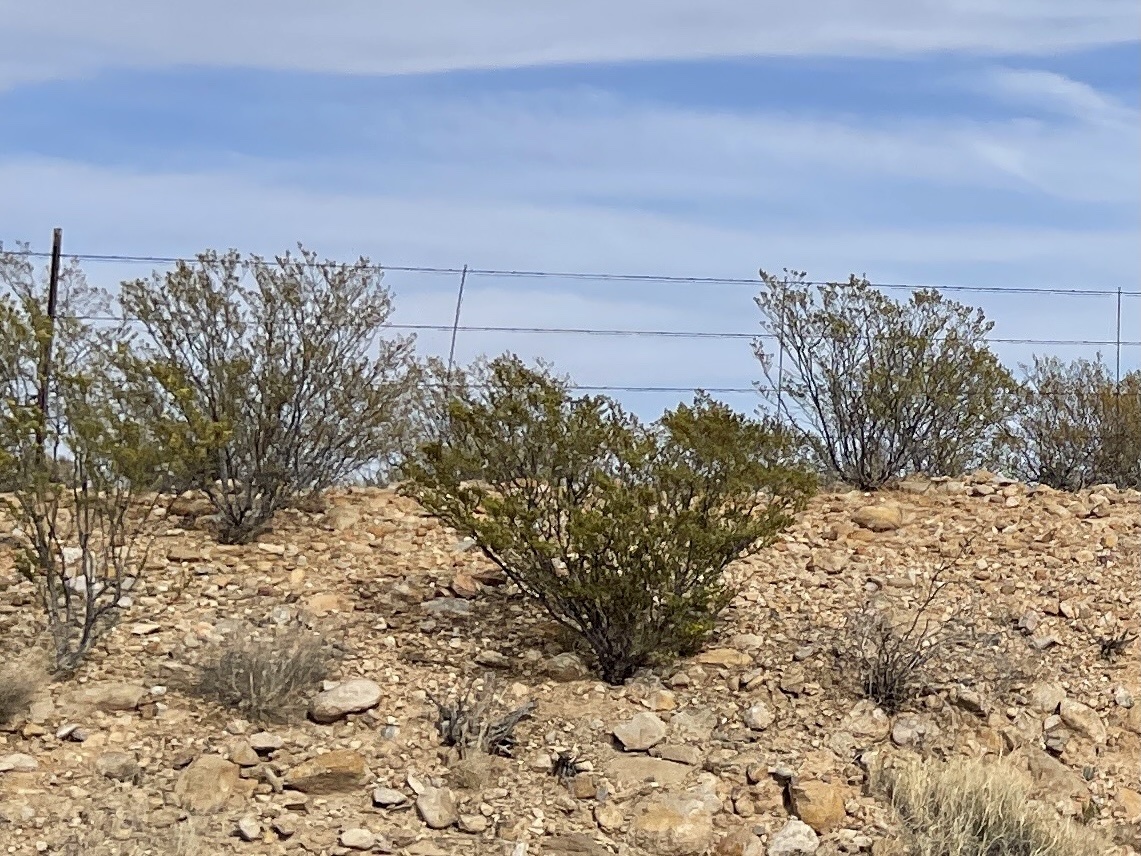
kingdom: Plantae
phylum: Tracheophyta
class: Magnoliopsida
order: Zygophyllales
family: Zygophyllaceae
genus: Larrea
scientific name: Larrea tridentata
